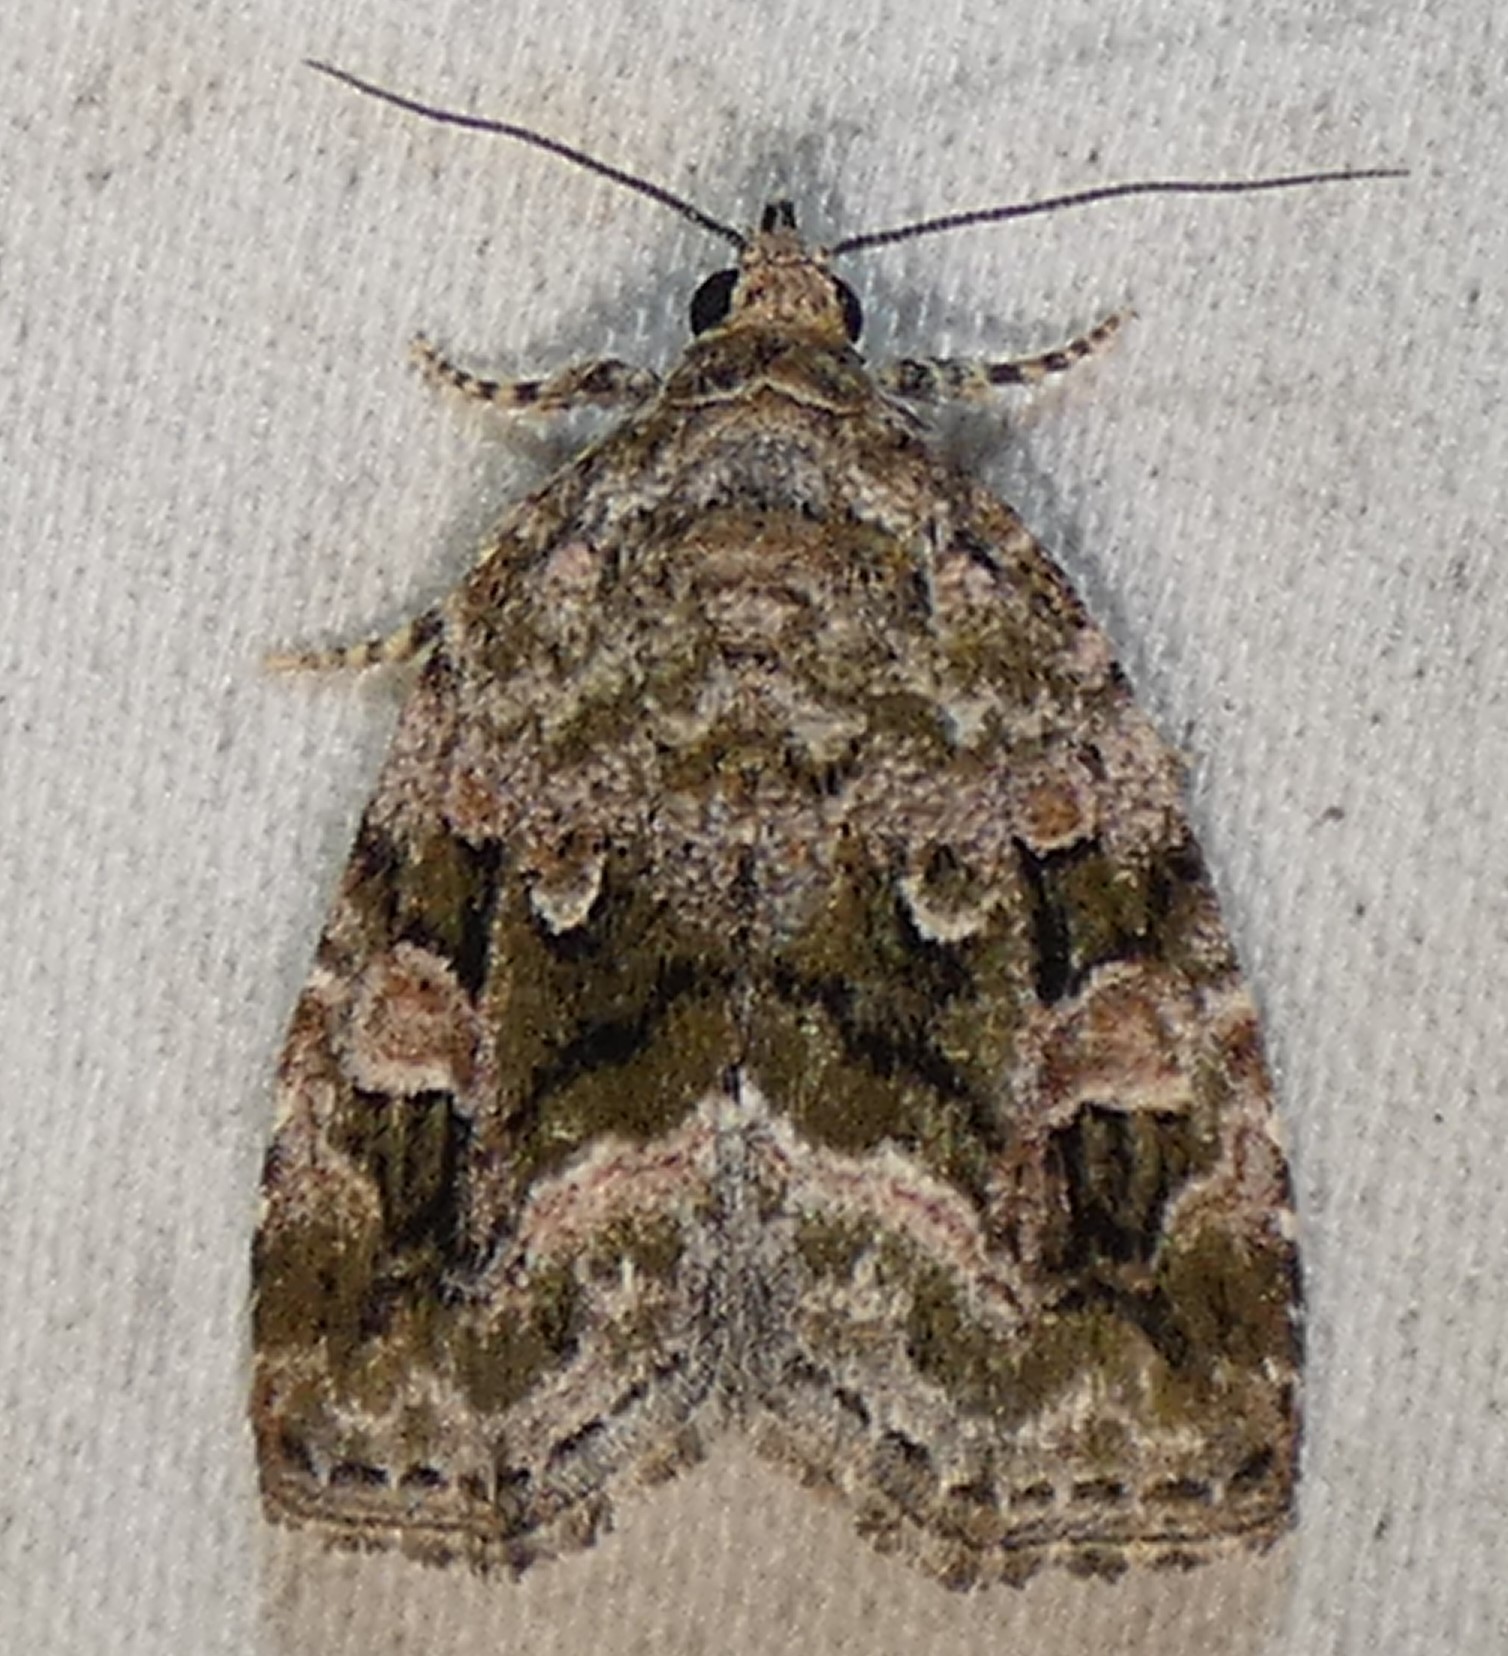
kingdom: Animalia
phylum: Arthropoda
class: Insecta
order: Lepidoptera
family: Noctuidae
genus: Protodeltote
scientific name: Protodeltote muscosula
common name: Large mossy glyph
